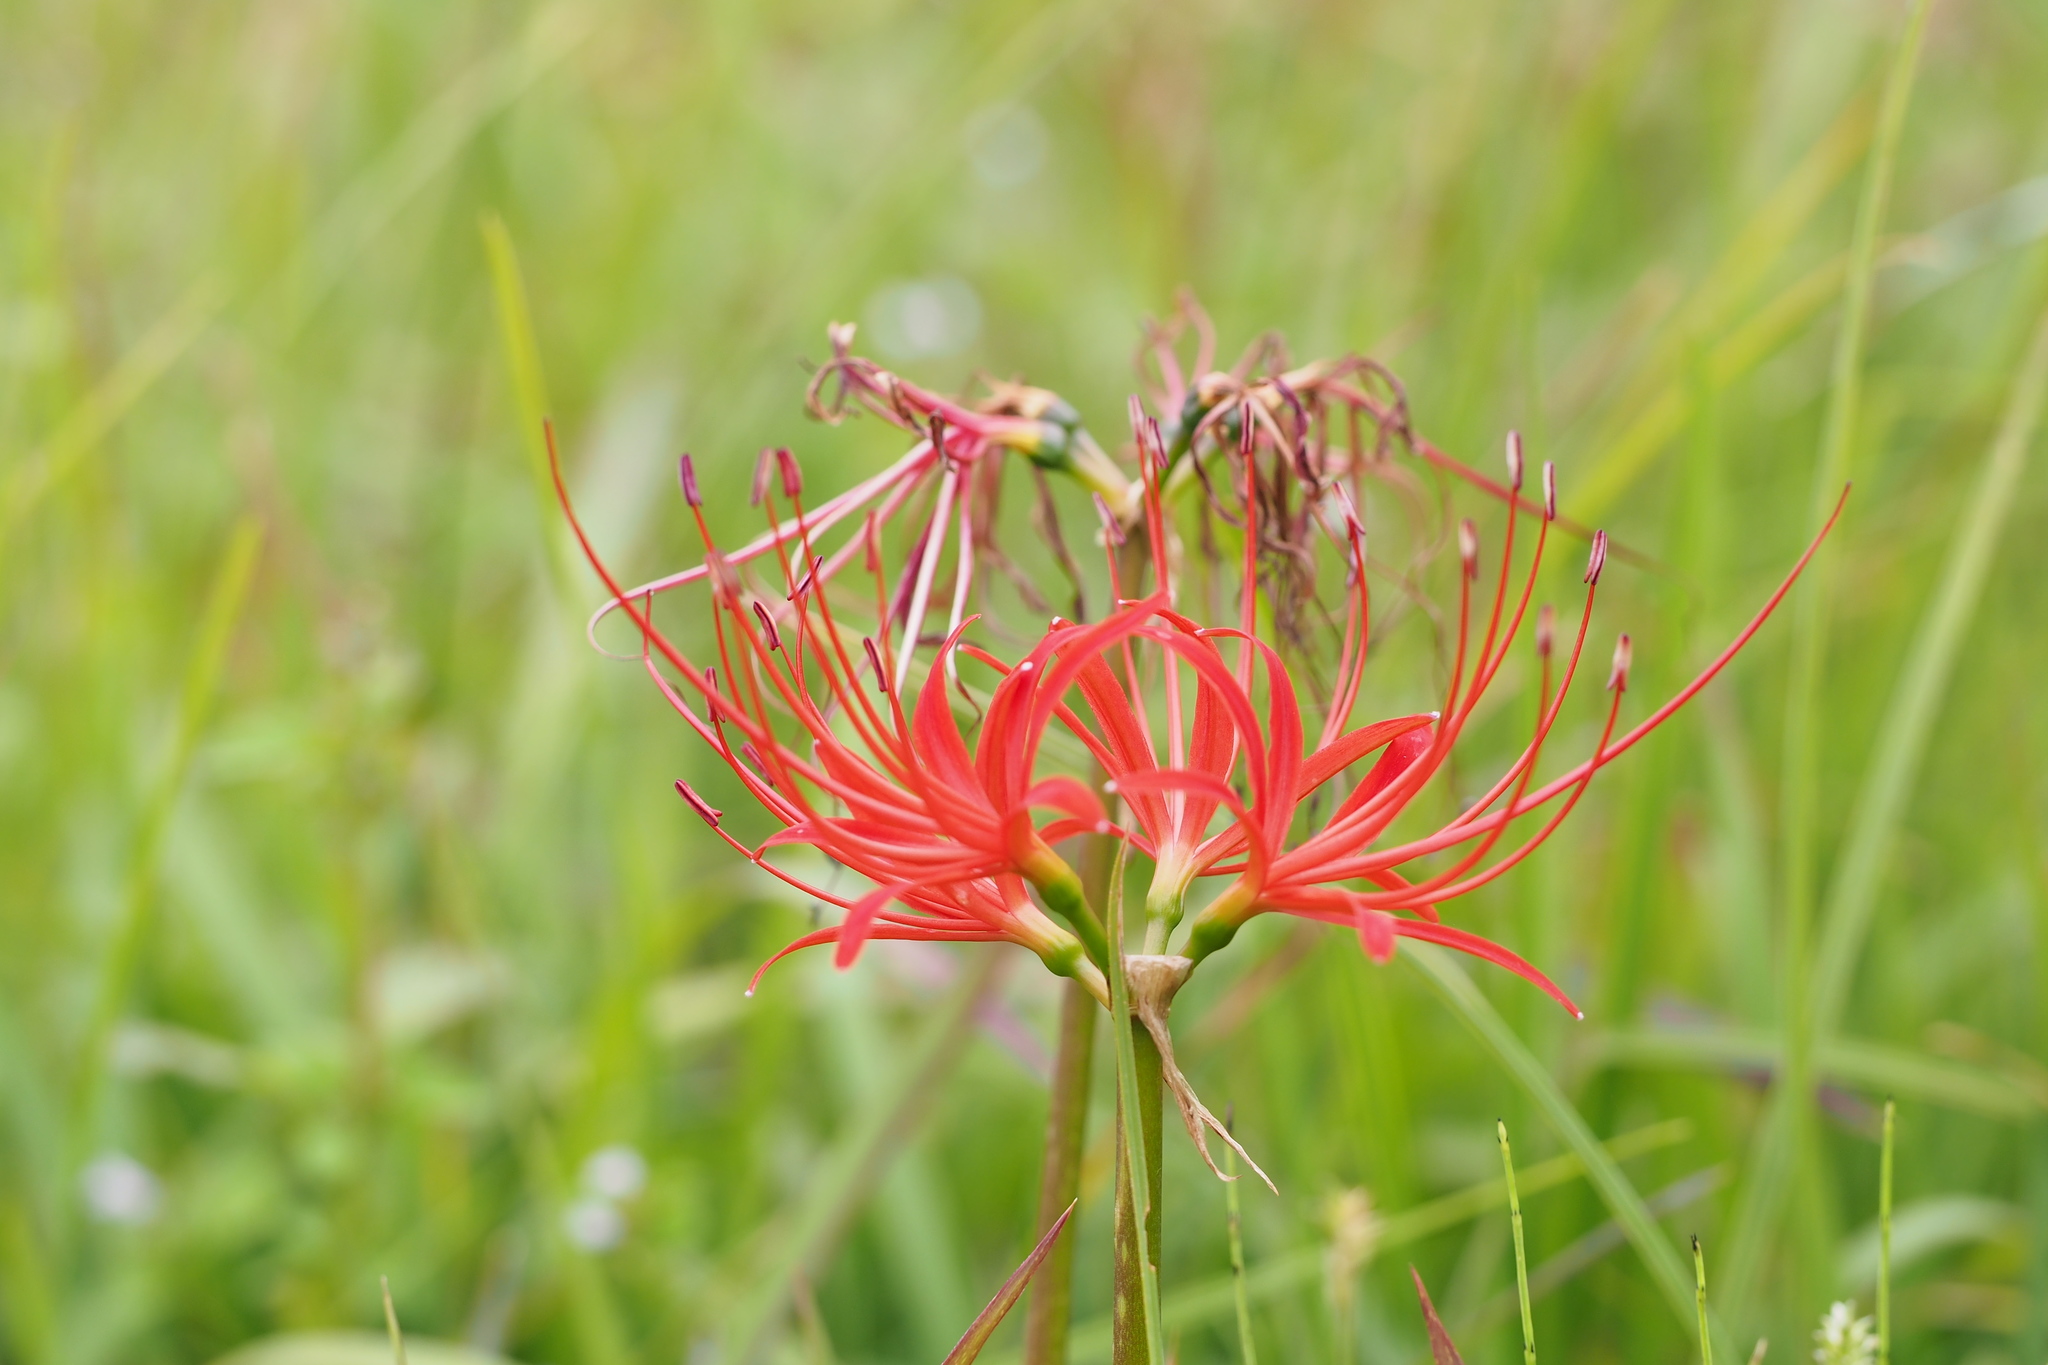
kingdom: Plantae
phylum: Tracheophyta
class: Liliopsida
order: Asparagales
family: Amaryllidaceae
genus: Lycoris
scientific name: Lycoris radiata
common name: Red spider lily
